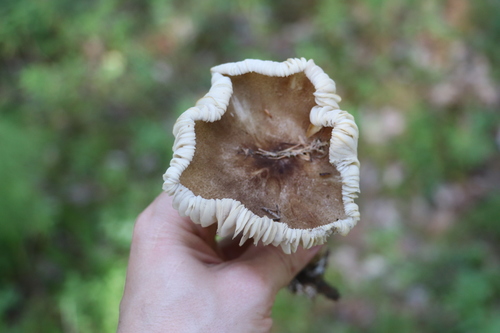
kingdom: Fungi
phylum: Basidiomycota
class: Agaricomycetes
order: Agaricales
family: Tricholomataceae
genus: Megacollybia
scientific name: Megacollybia platyphylla
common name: Whitelaced shank
